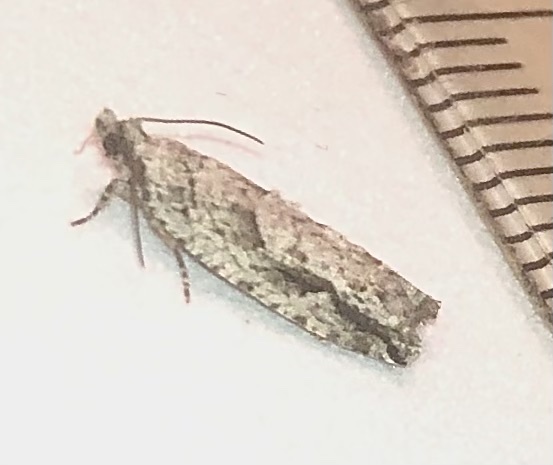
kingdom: Animalia
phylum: Arthropoda
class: Insecta
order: Lepidoptera
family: Tortricidae
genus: Proteoteras
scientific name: Proteoteras aesculana
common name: Maple twig borer moth
